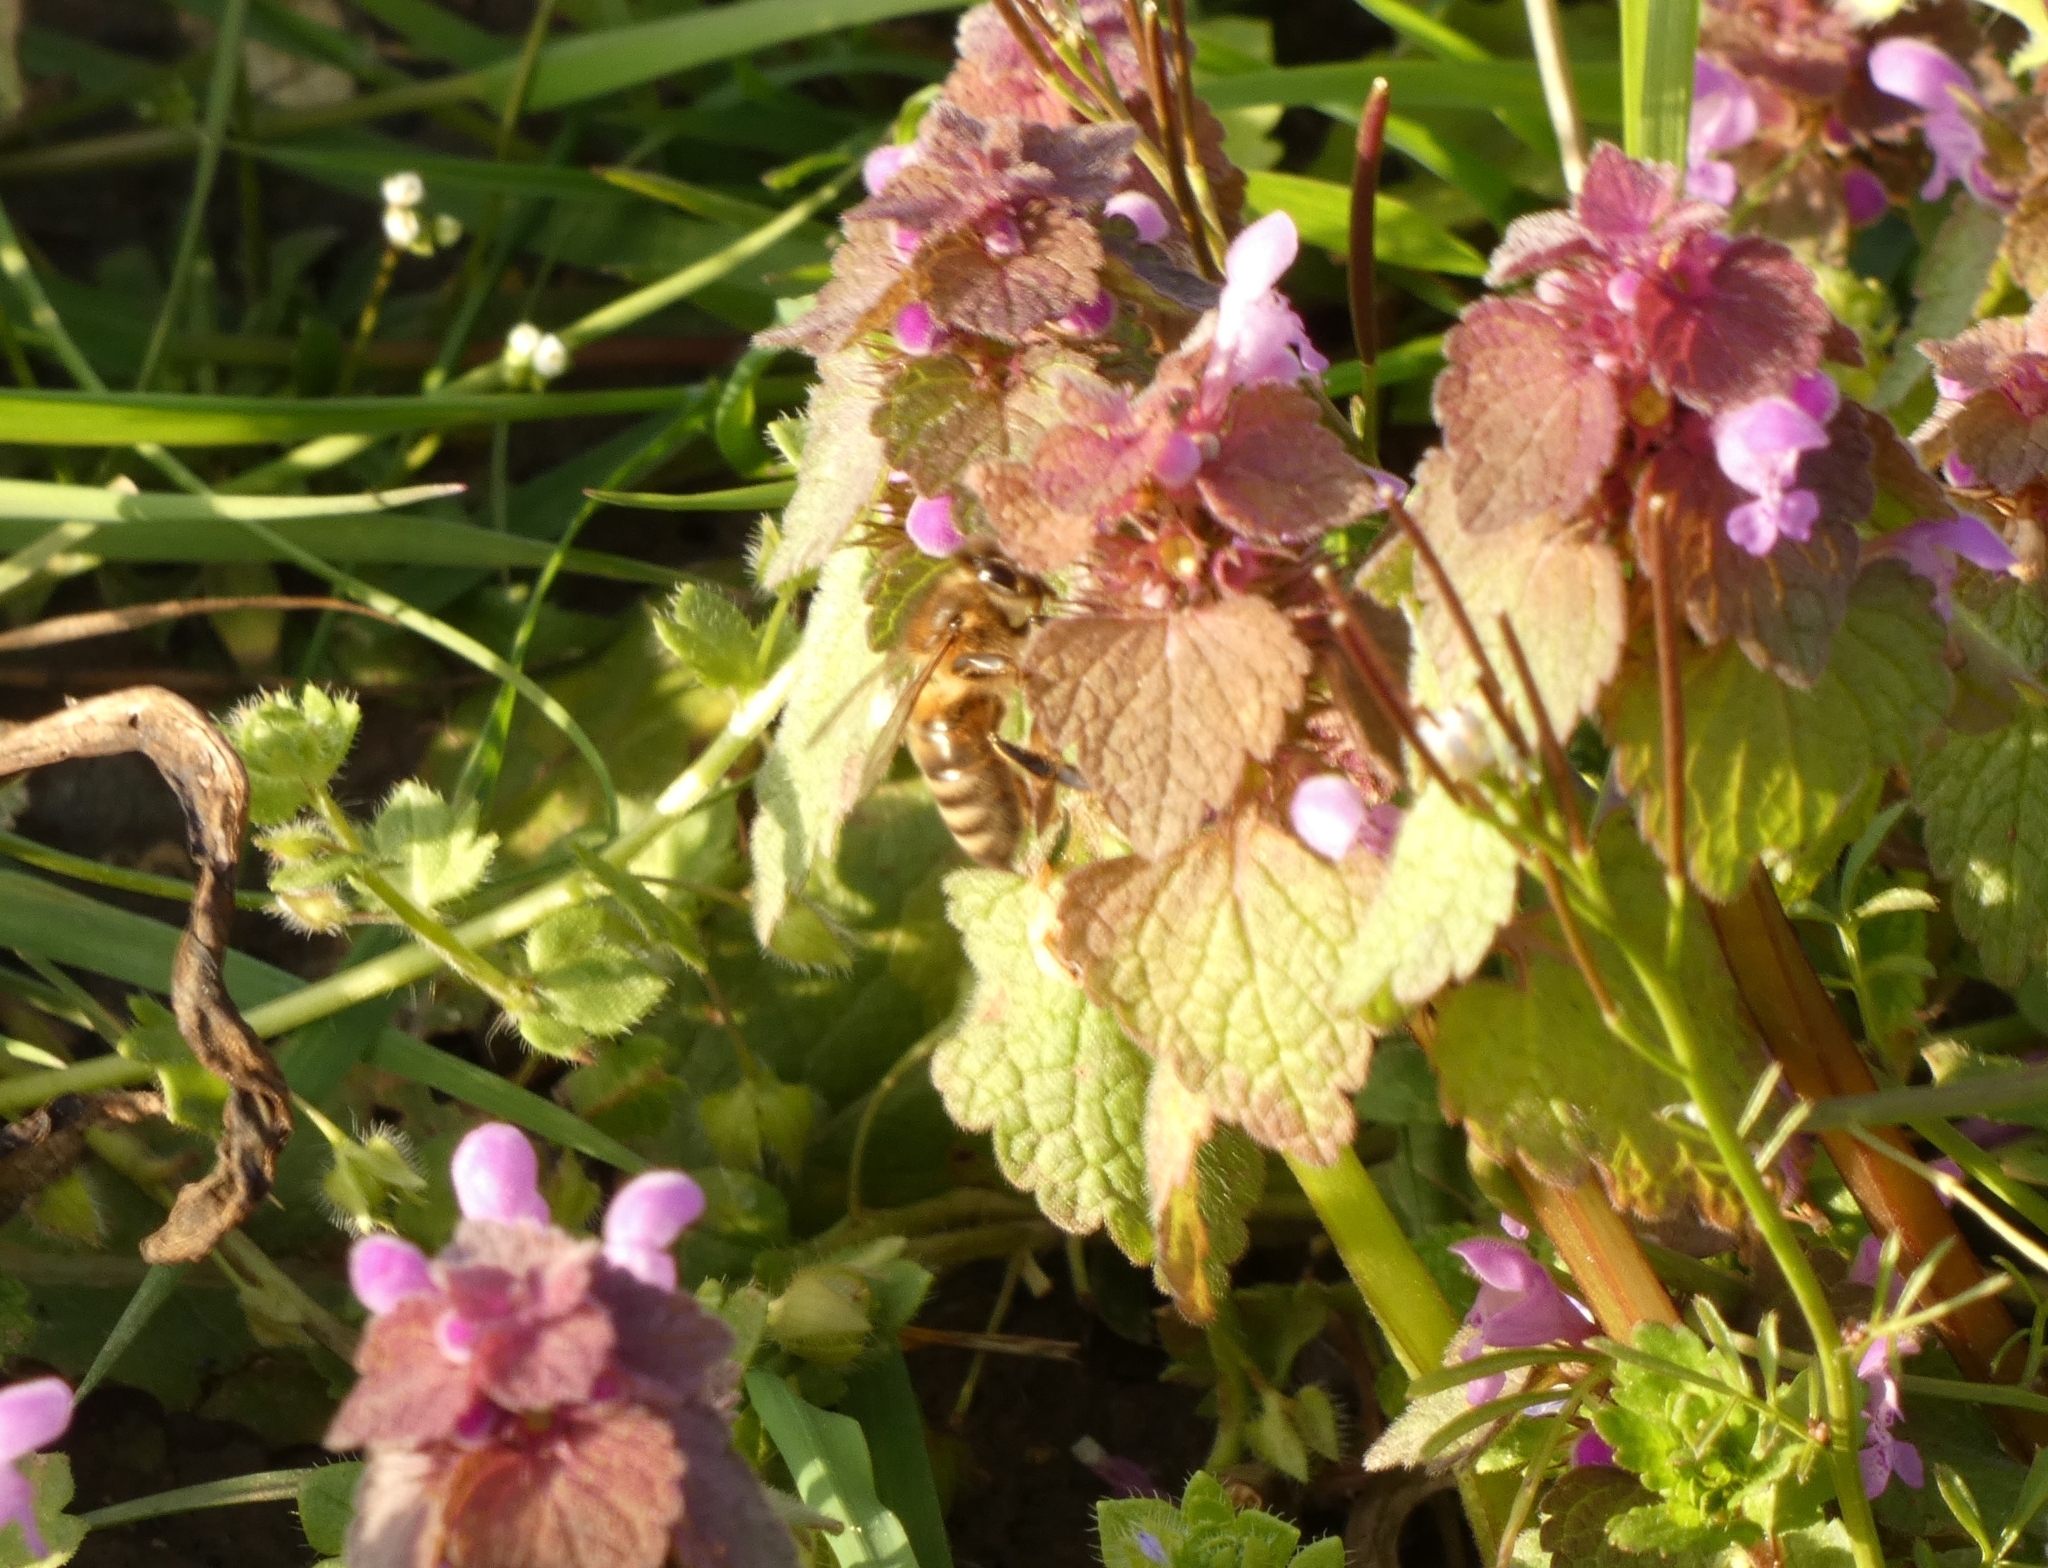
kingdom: Animalia
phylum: Arthropoda
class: Insecta
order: Hymenoptera
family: Apidae
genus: Apis
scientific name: Apis mellifera
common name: Honey bee
